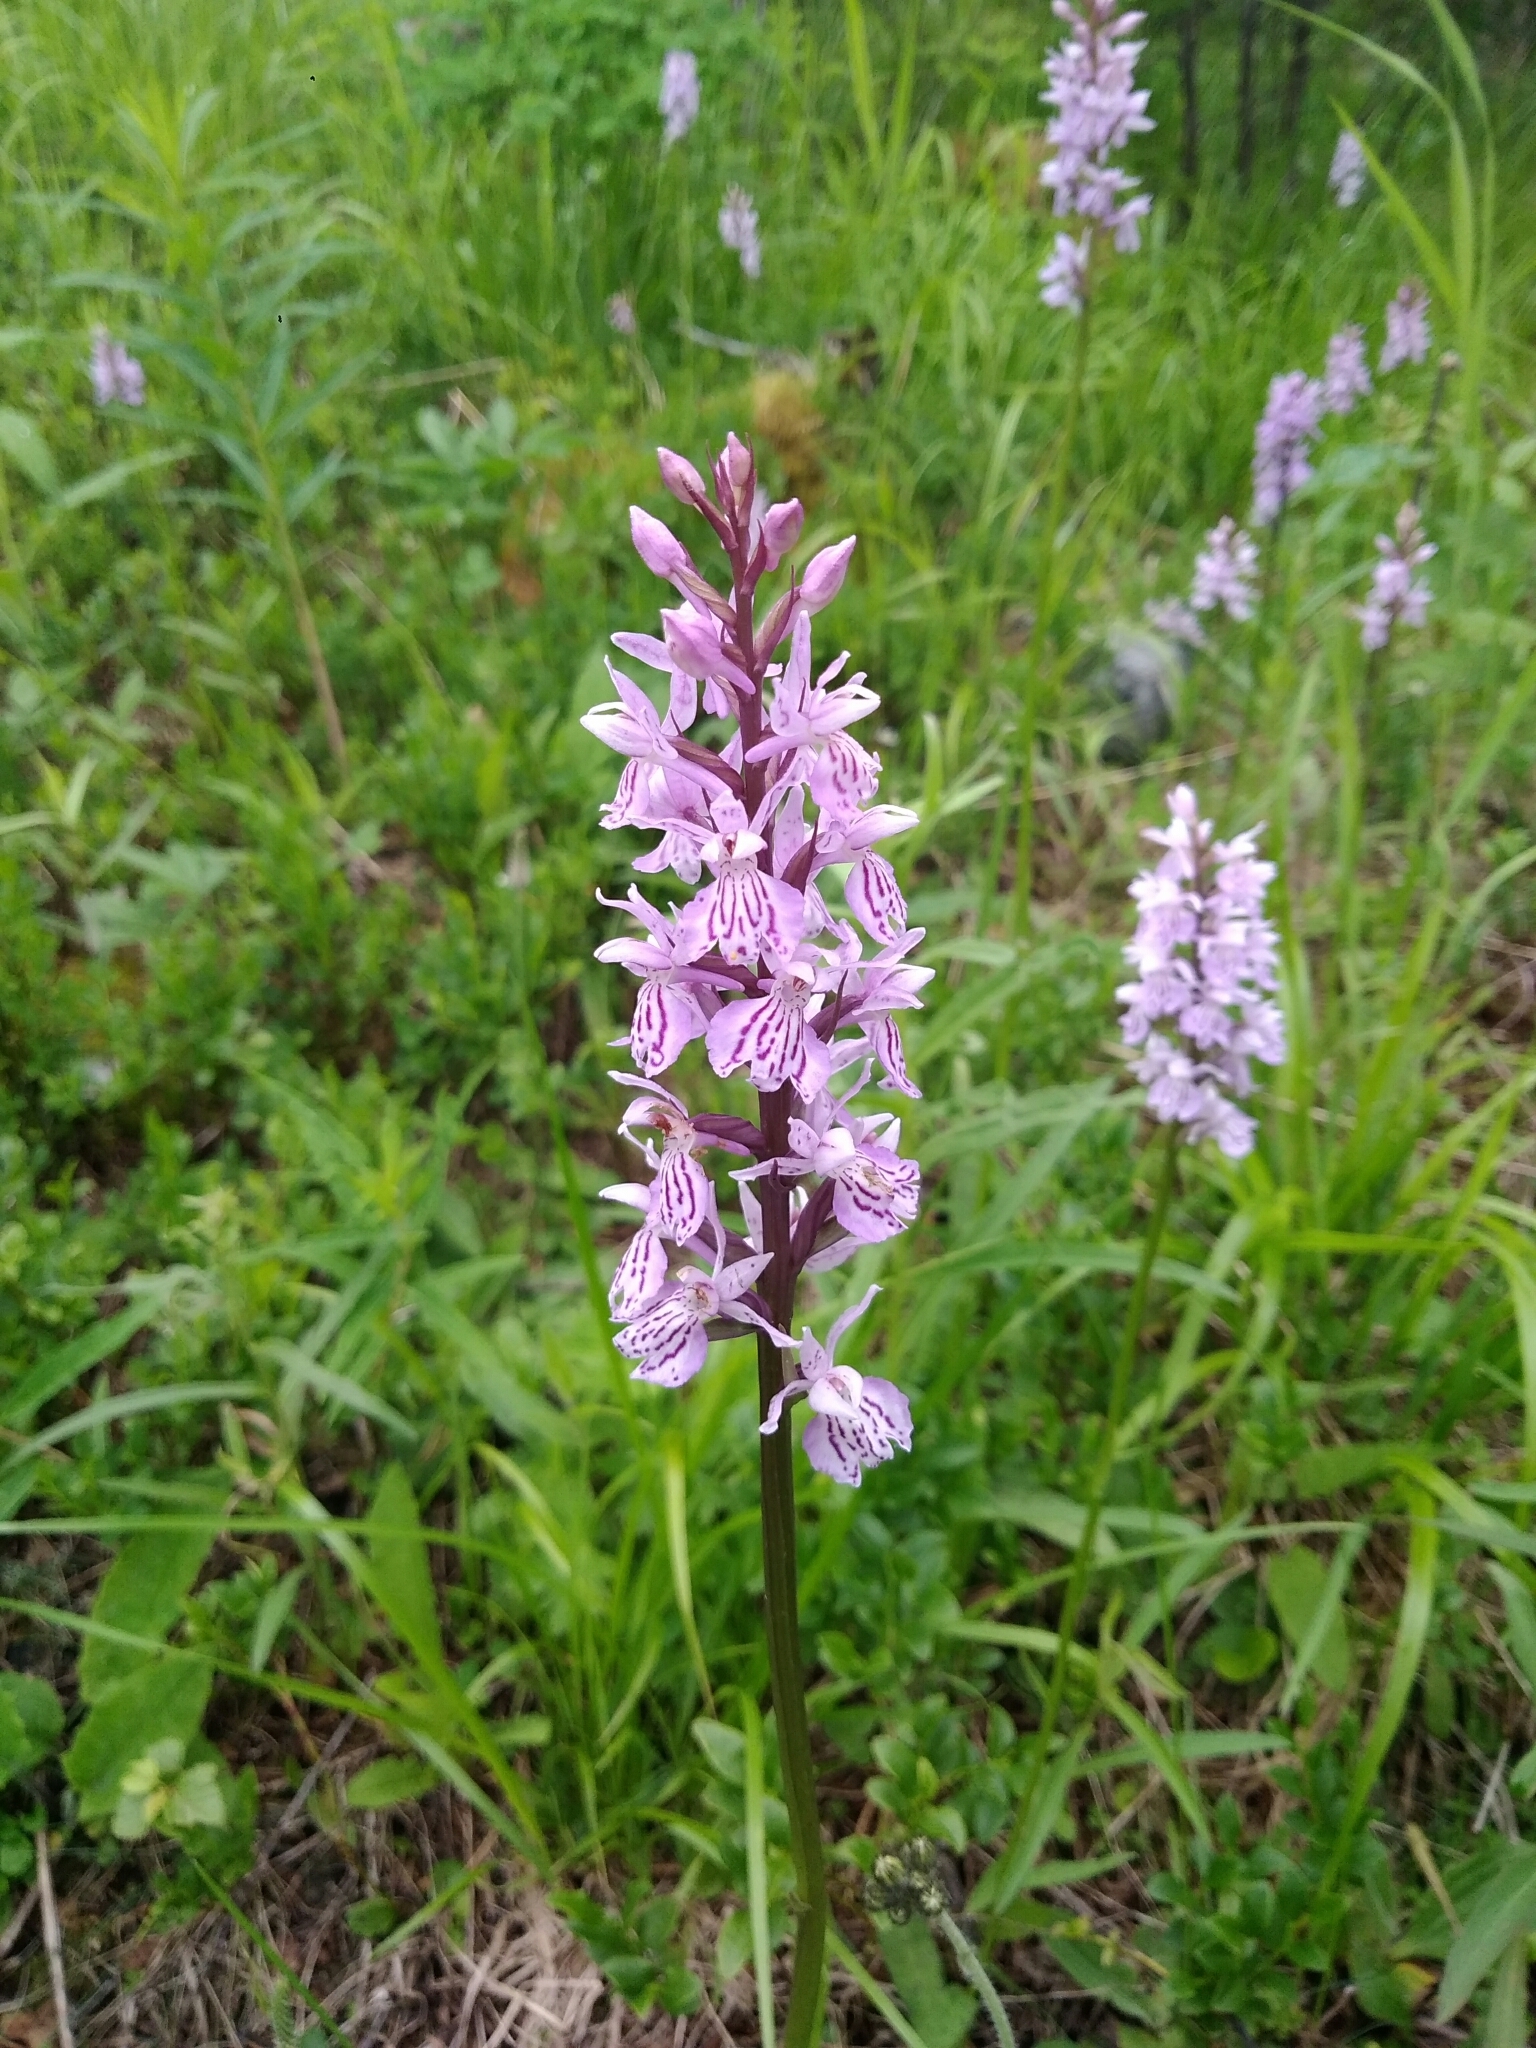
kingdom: Plantae
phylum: Tracheophyta
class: Liliopsida
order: Asparagales
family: Orchidaceae
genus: Dactylorhiza
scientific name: Dactylorhiza maculata
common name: Heath spotted-orchid
